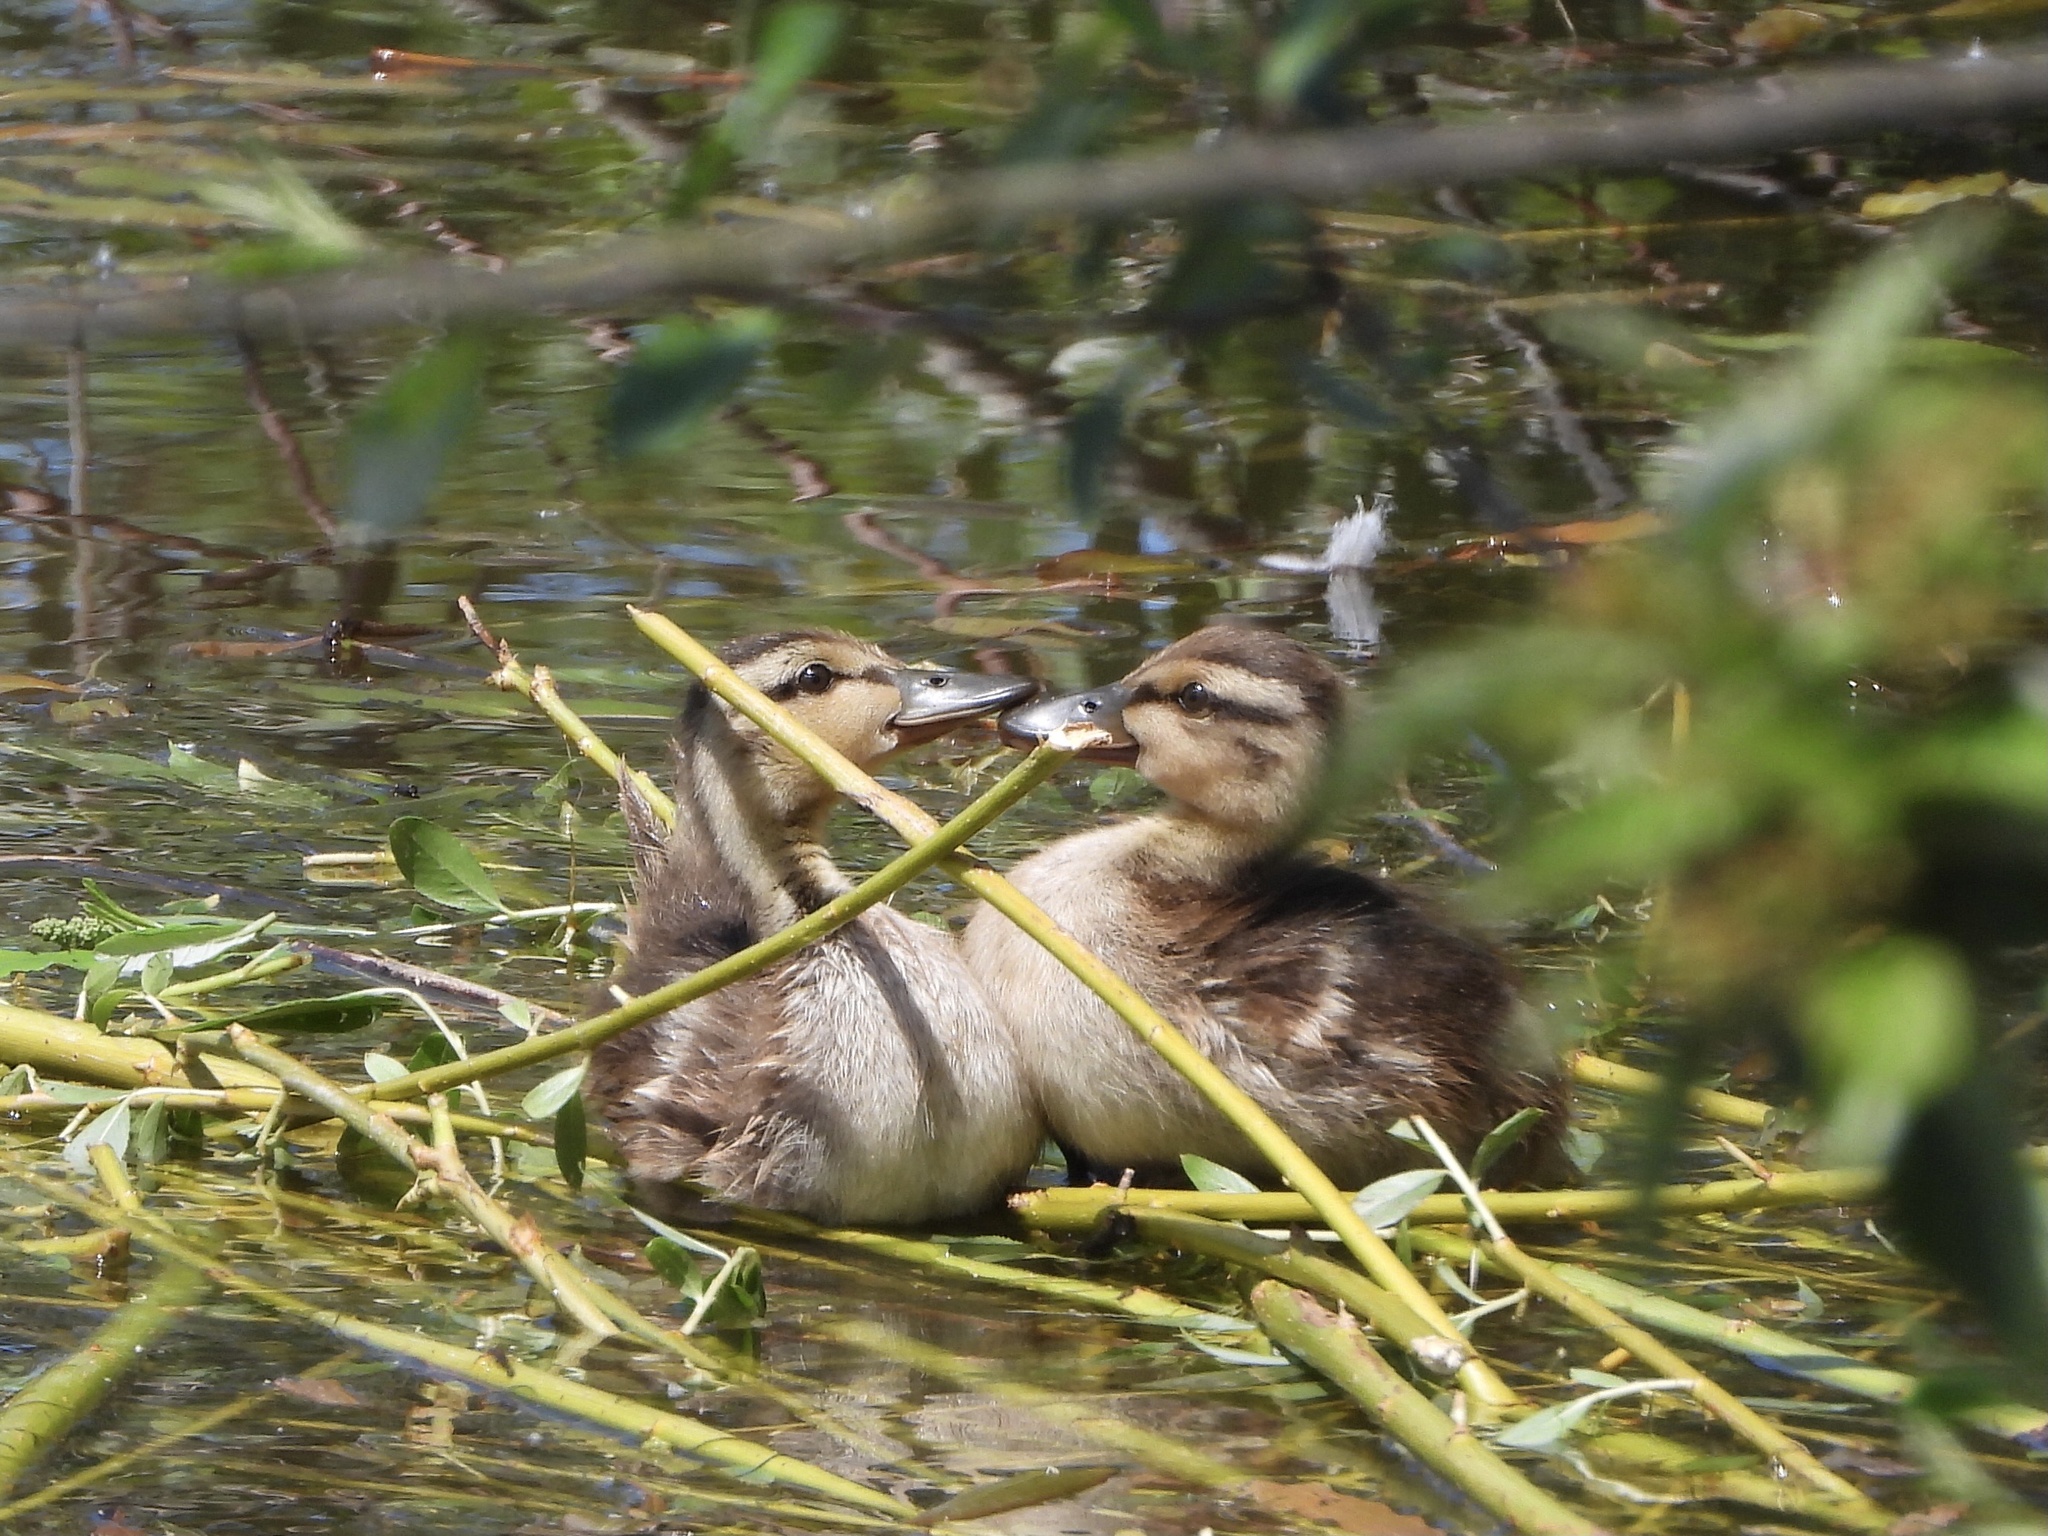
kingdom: Animalia
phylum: Chordata
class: Aves
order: Anseriformes
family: Anatidae
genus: Anas
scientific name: Anas platyrhynchos
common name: Mallard
